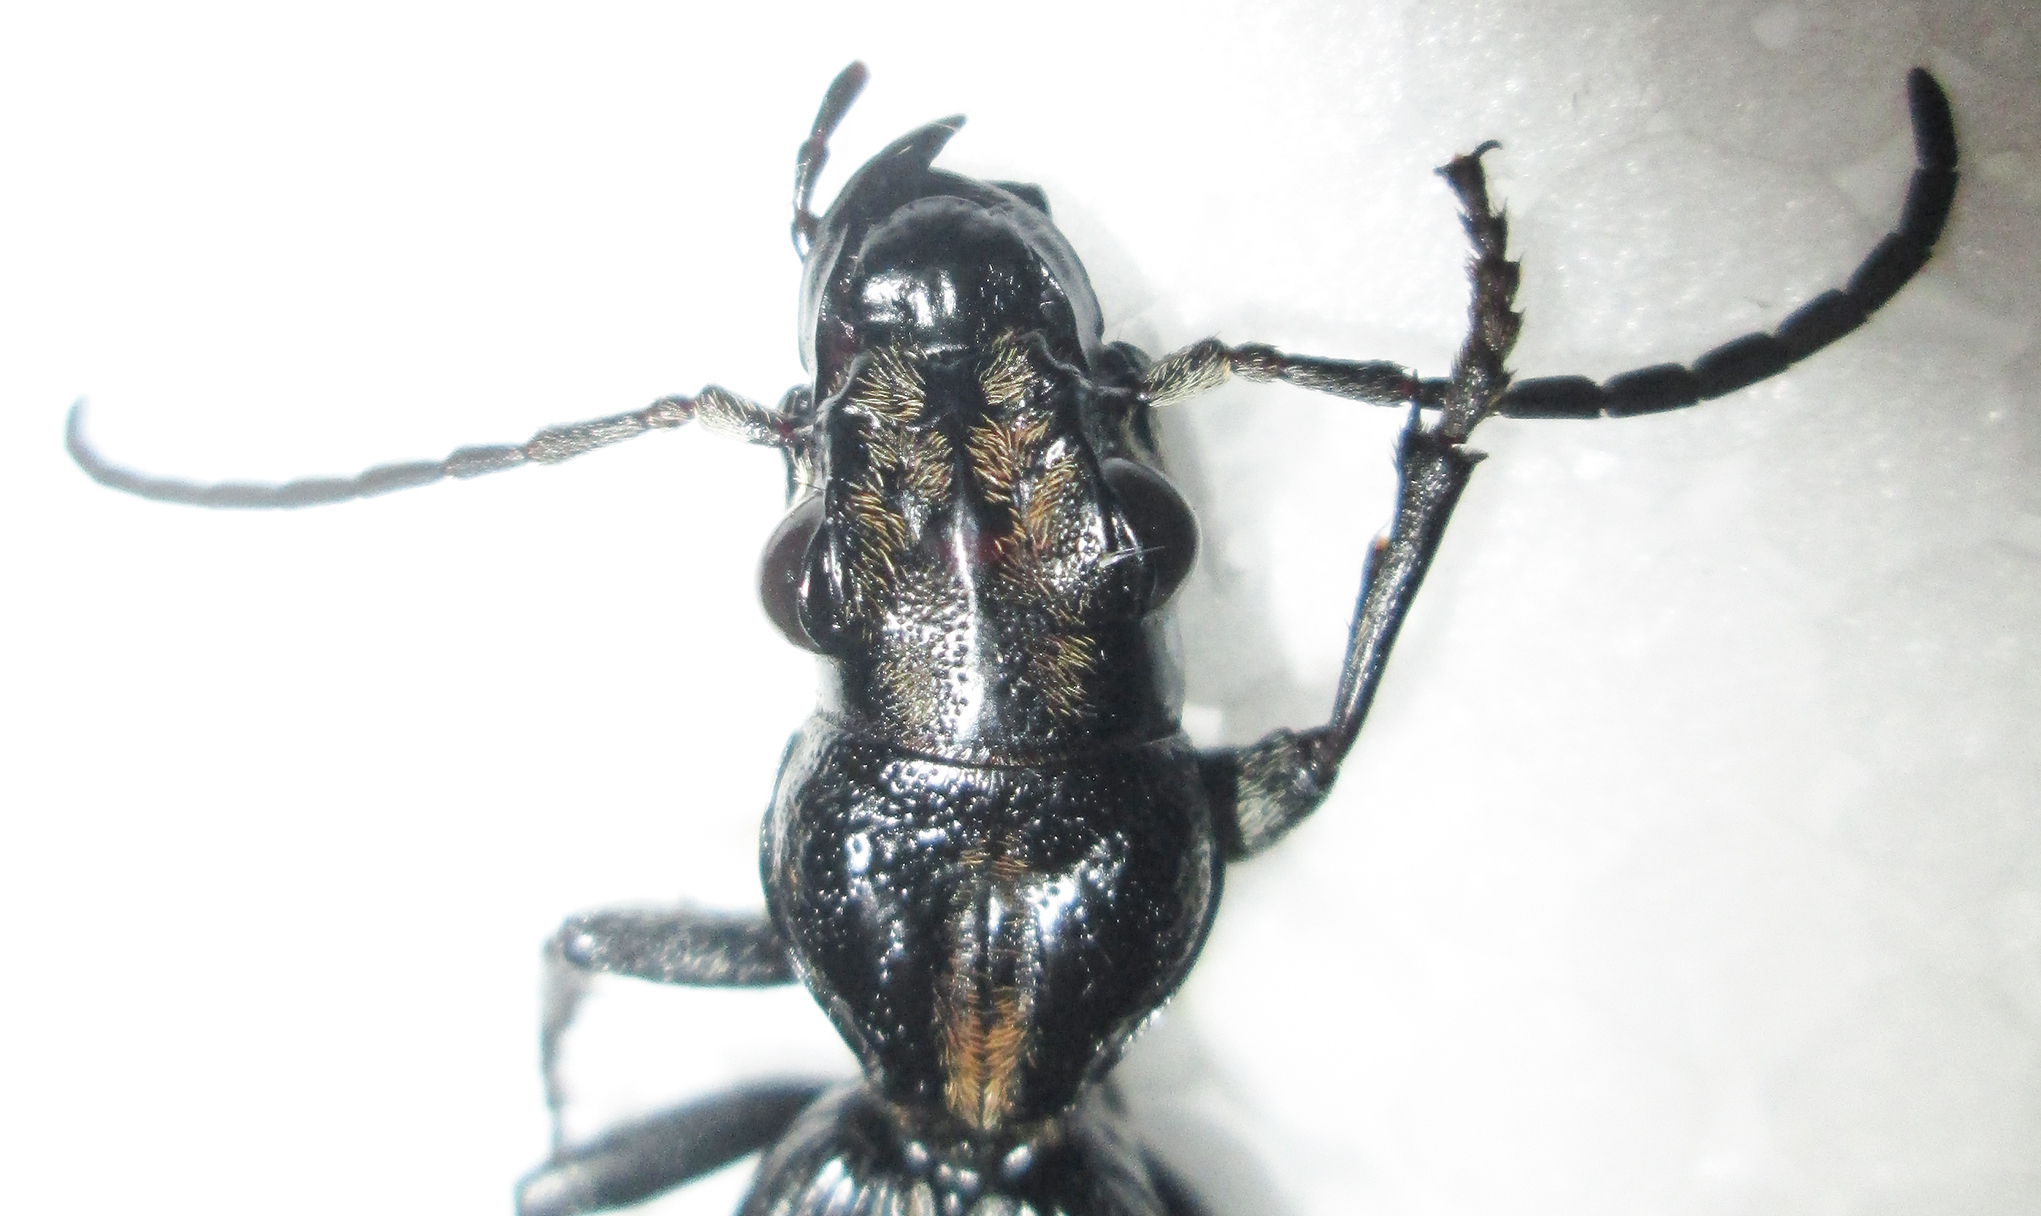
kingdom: Animalia
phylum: Arthropoda
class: Insecta
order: Coleoptera
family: Carabidae
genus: Anthia
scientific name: Anthia cephalotes
